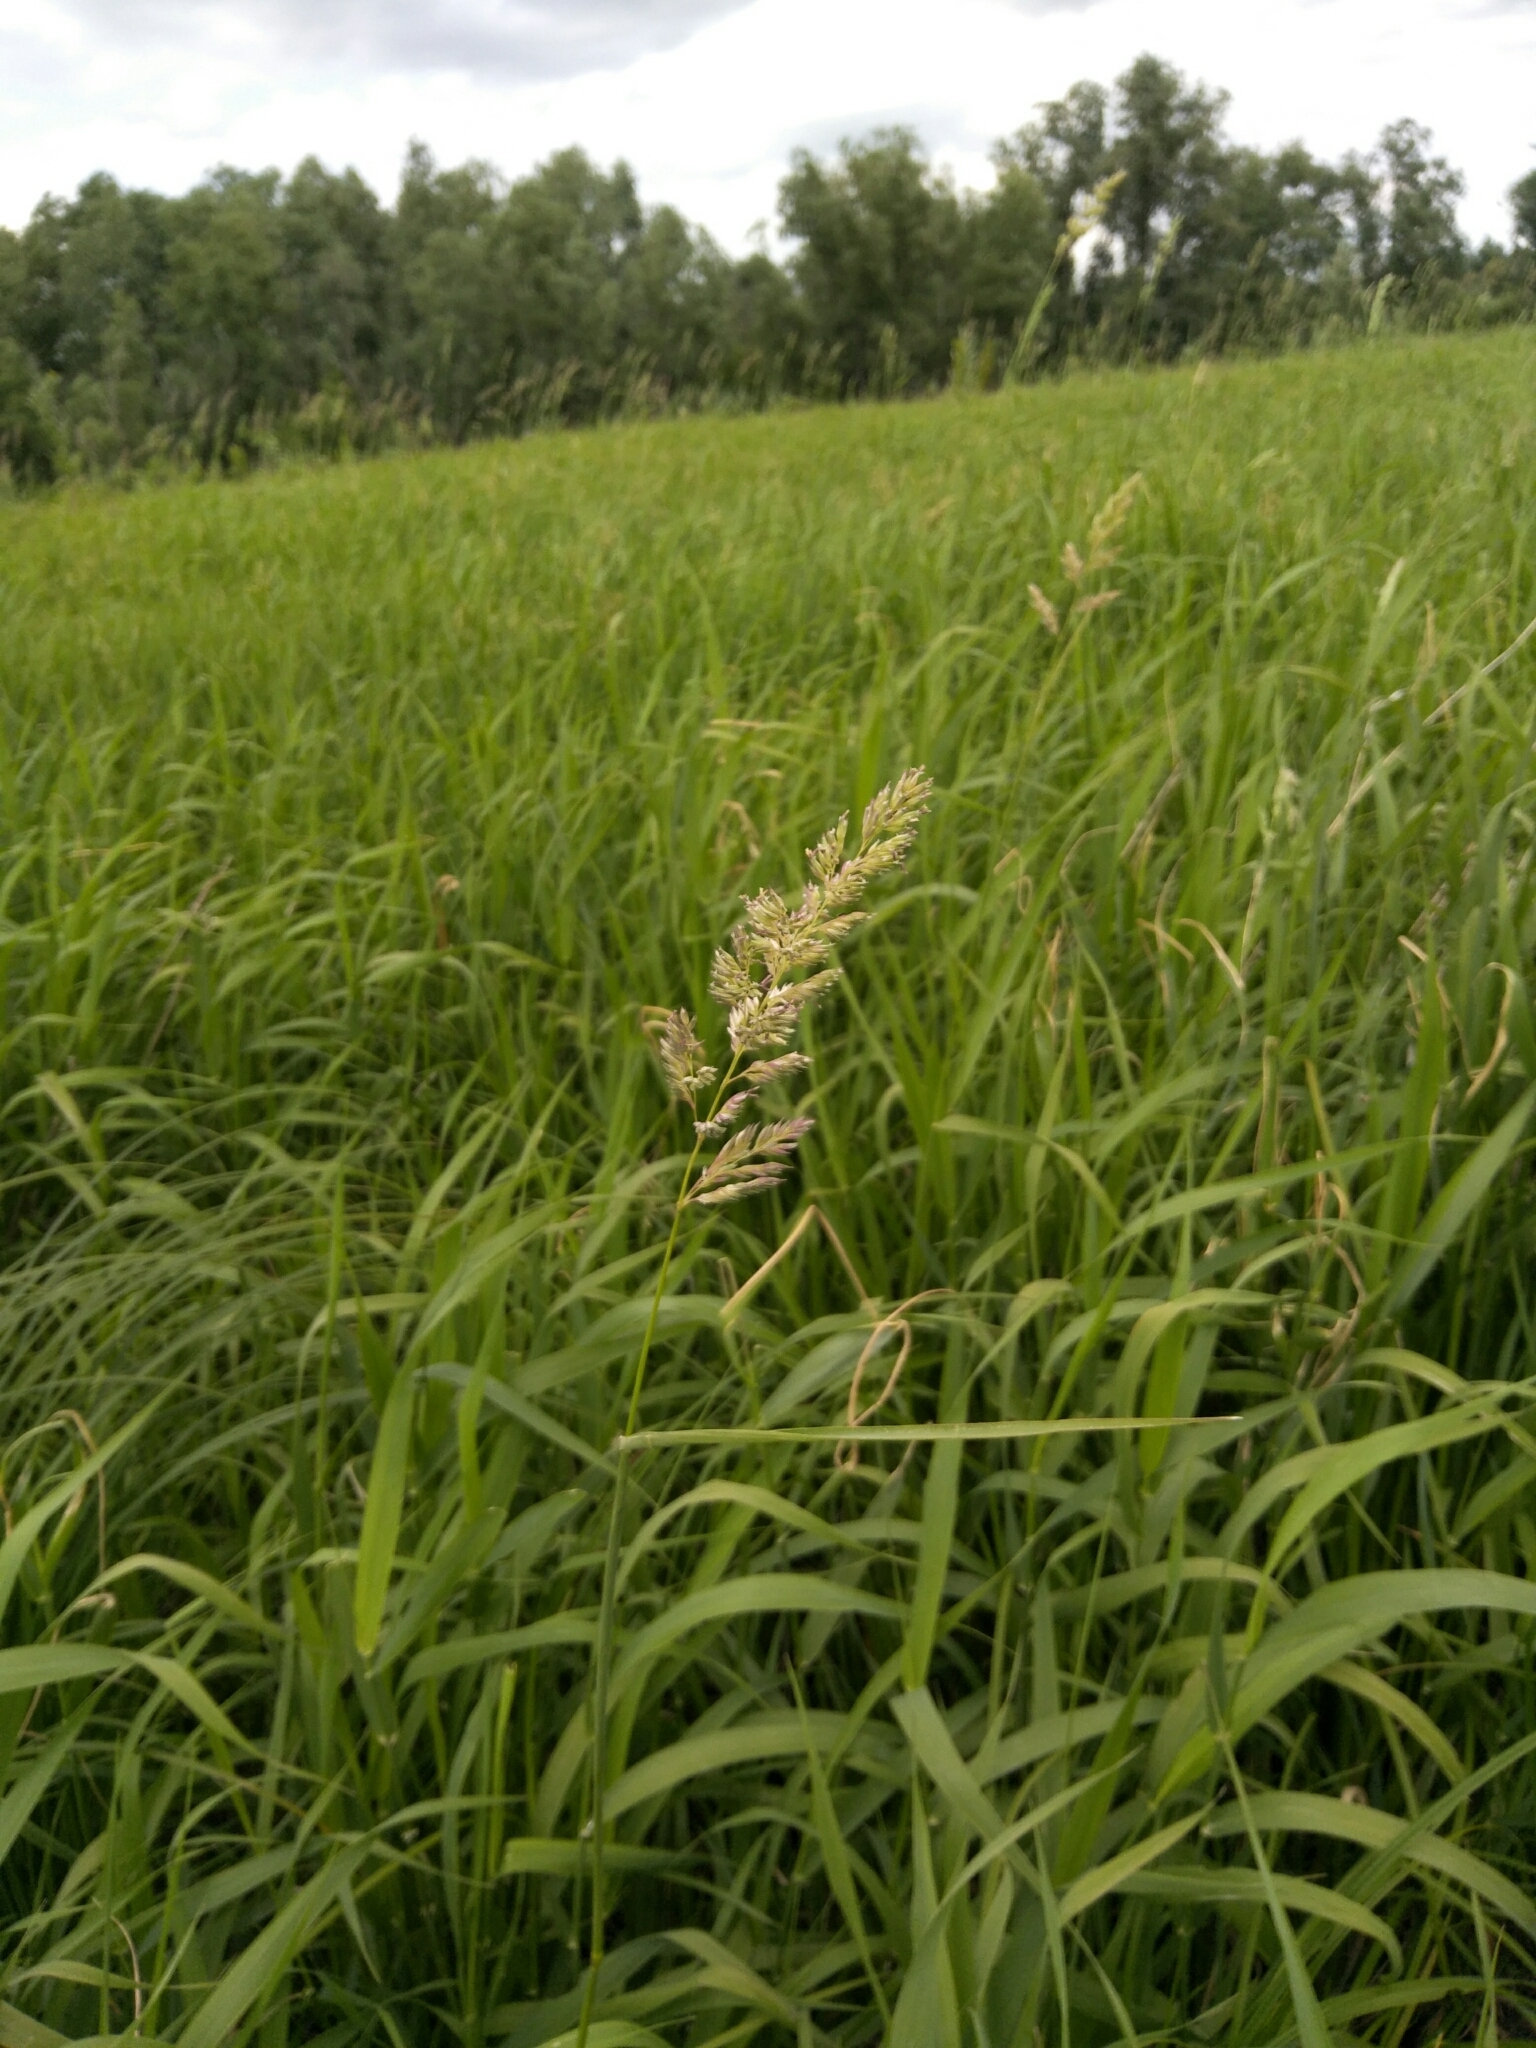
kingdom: Plantae
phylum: Tracheophyta
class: Liliopsida
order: Poales
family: Poaceae
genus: Phalaris
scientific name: Phalaris arundinacea
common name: Reed canary-grass
